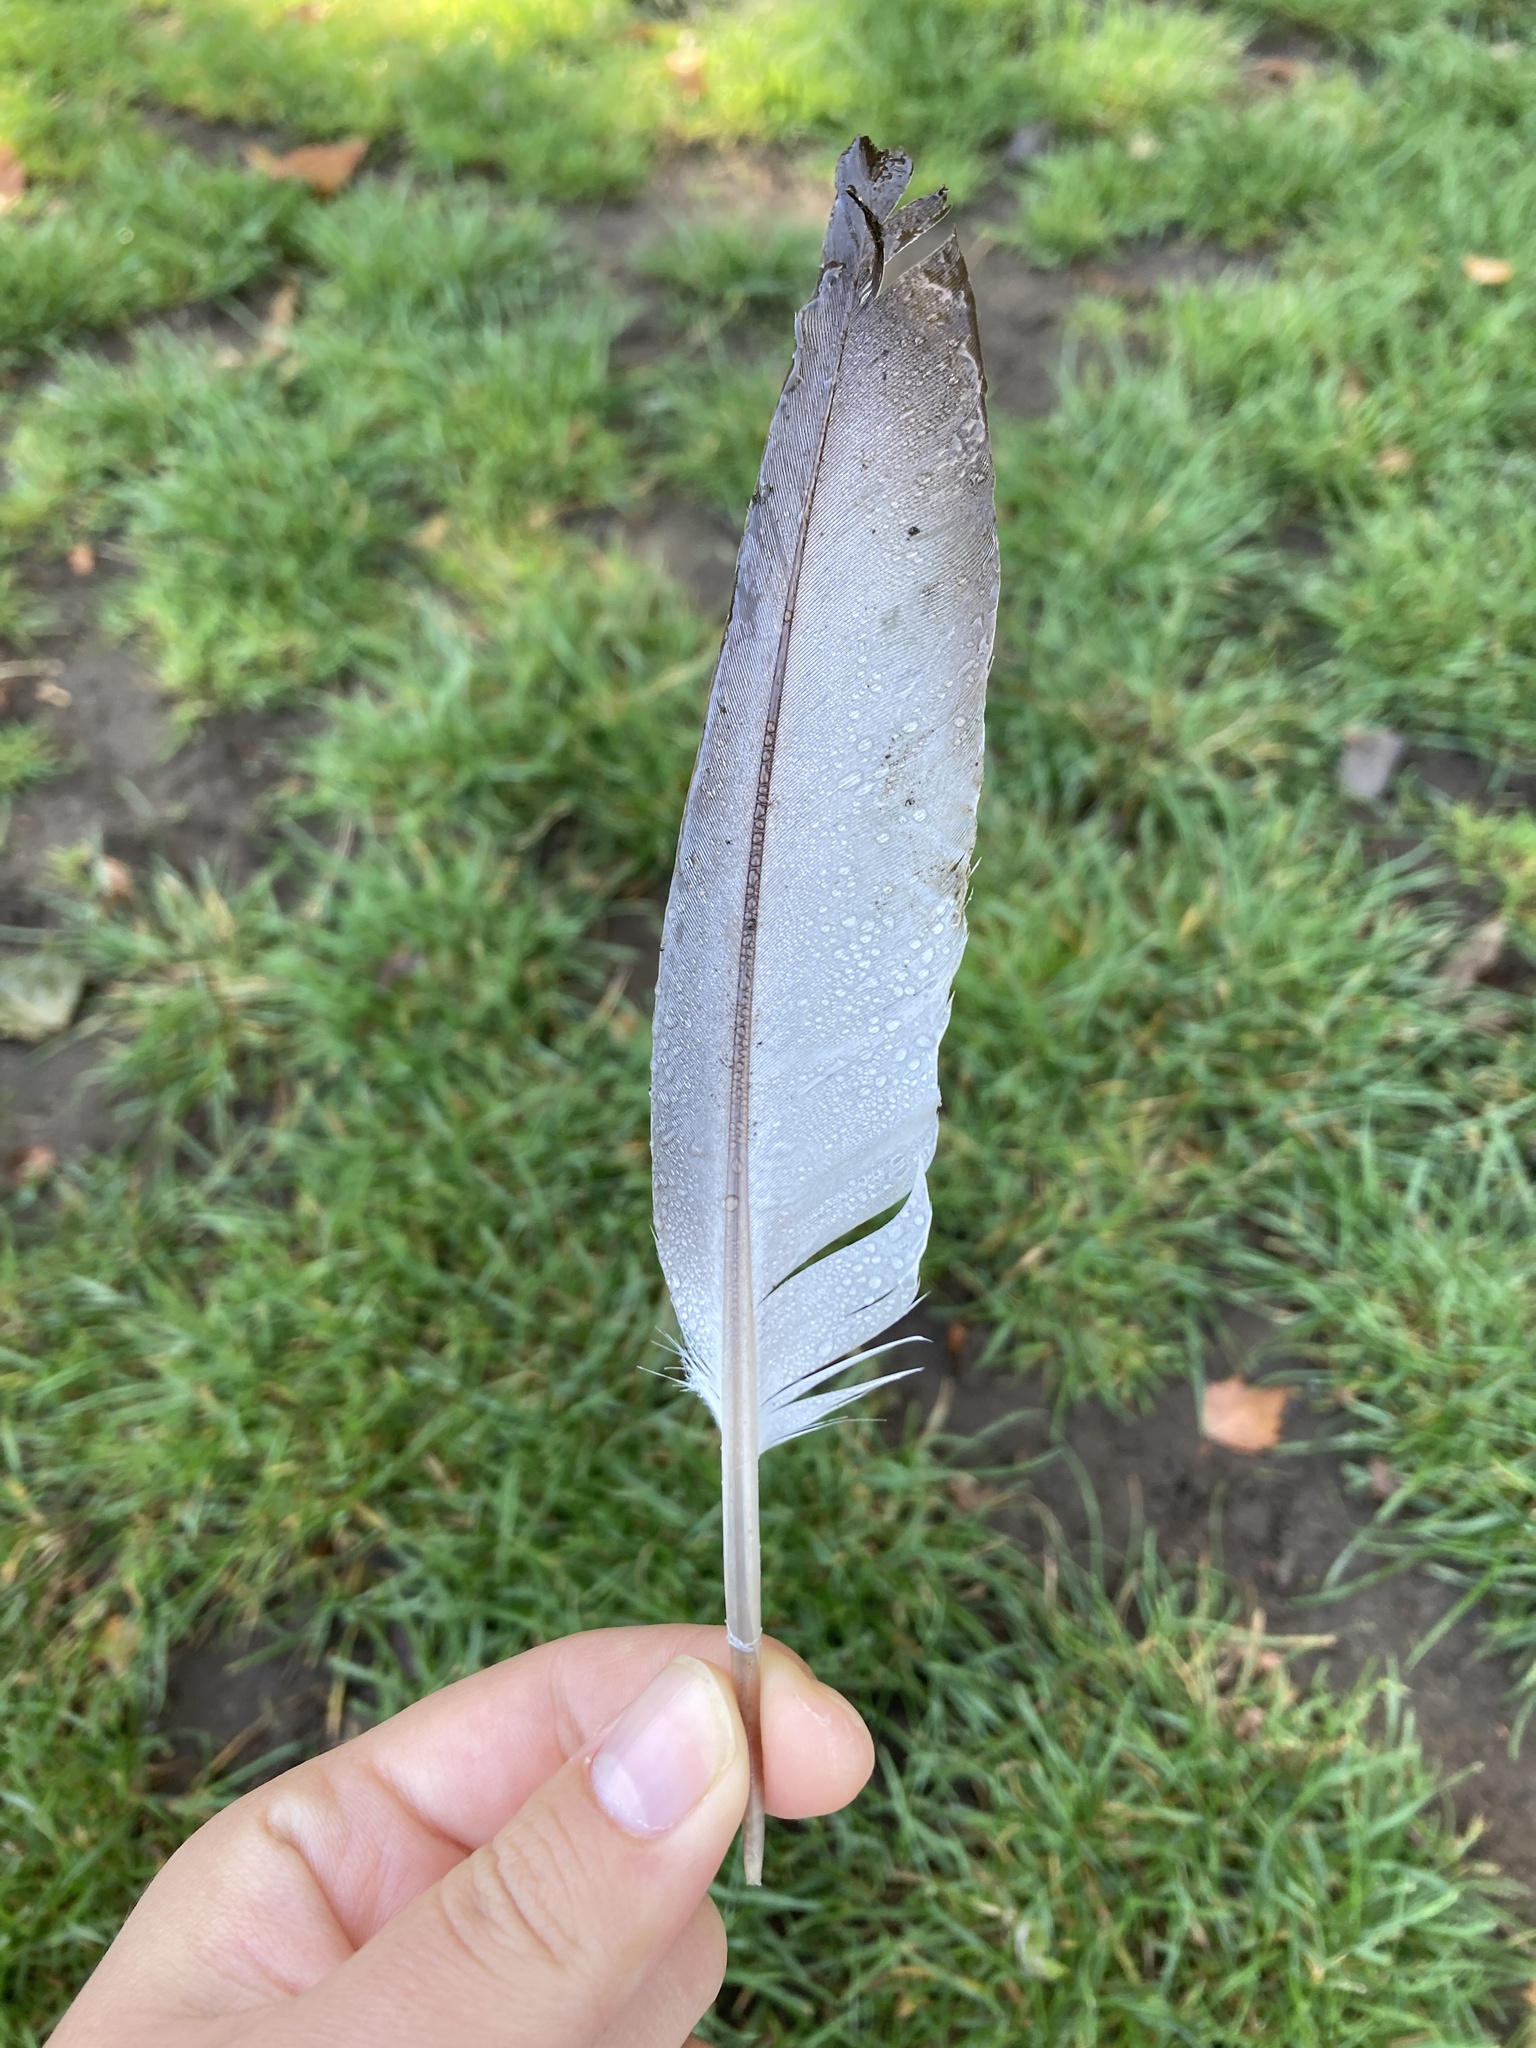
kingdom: Animalia
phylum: Chordata
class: Aves
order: Columbiformes
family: Columbidae
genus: Columba
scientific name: Columba livia
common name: Rock pigeon
